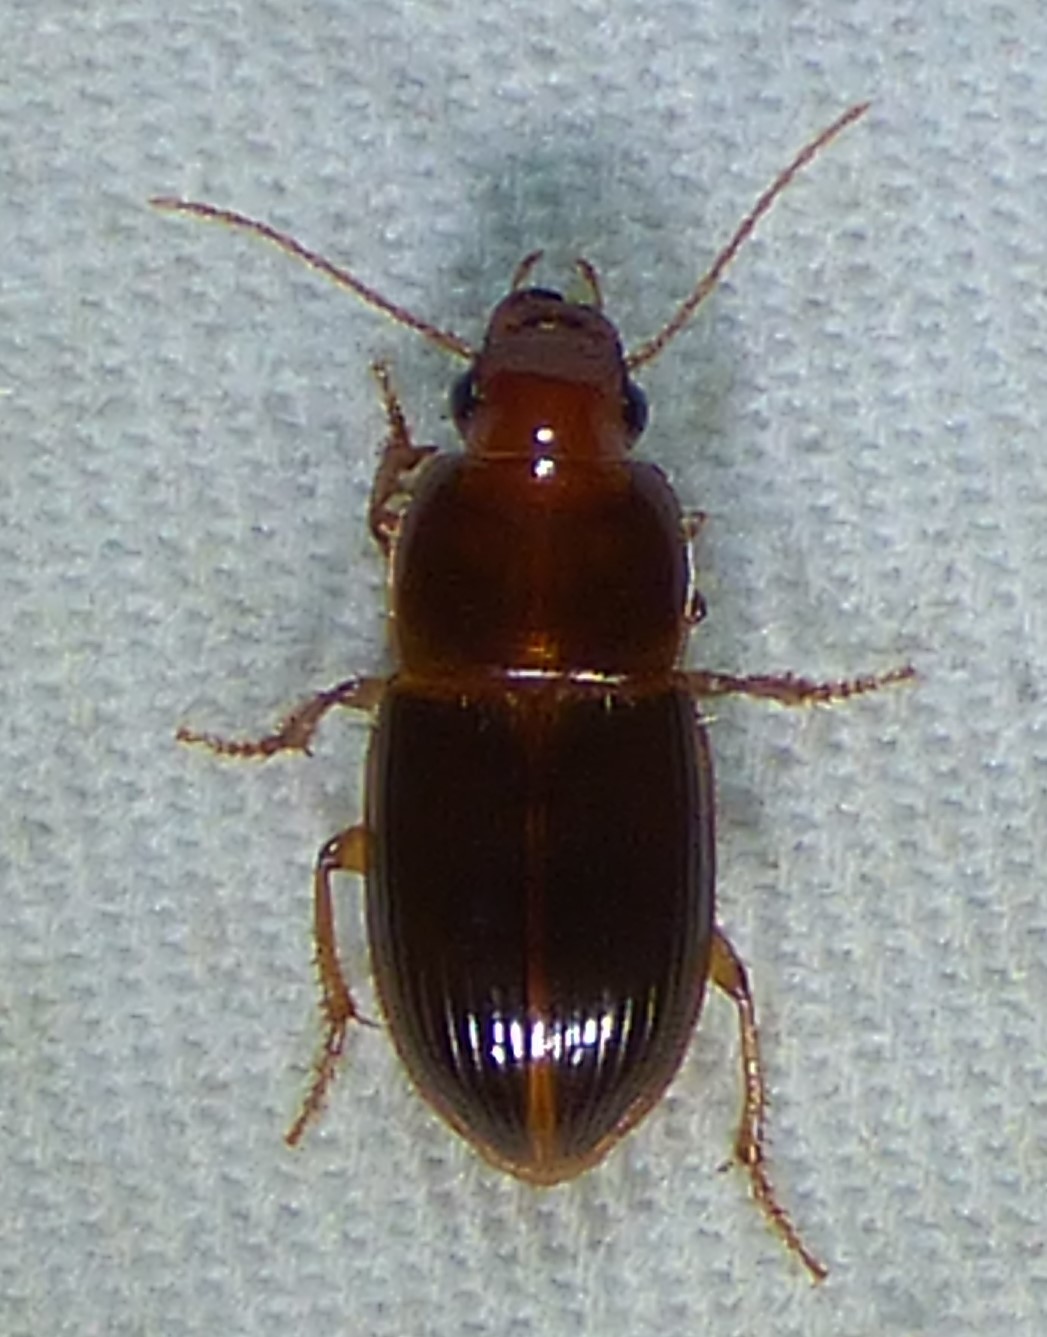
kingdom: Animalia
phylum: Arthropoda
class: Insecta
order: Coleoptera
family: Carabidae
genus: Trichotichnus
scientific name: Trichotichnus nitidulus
